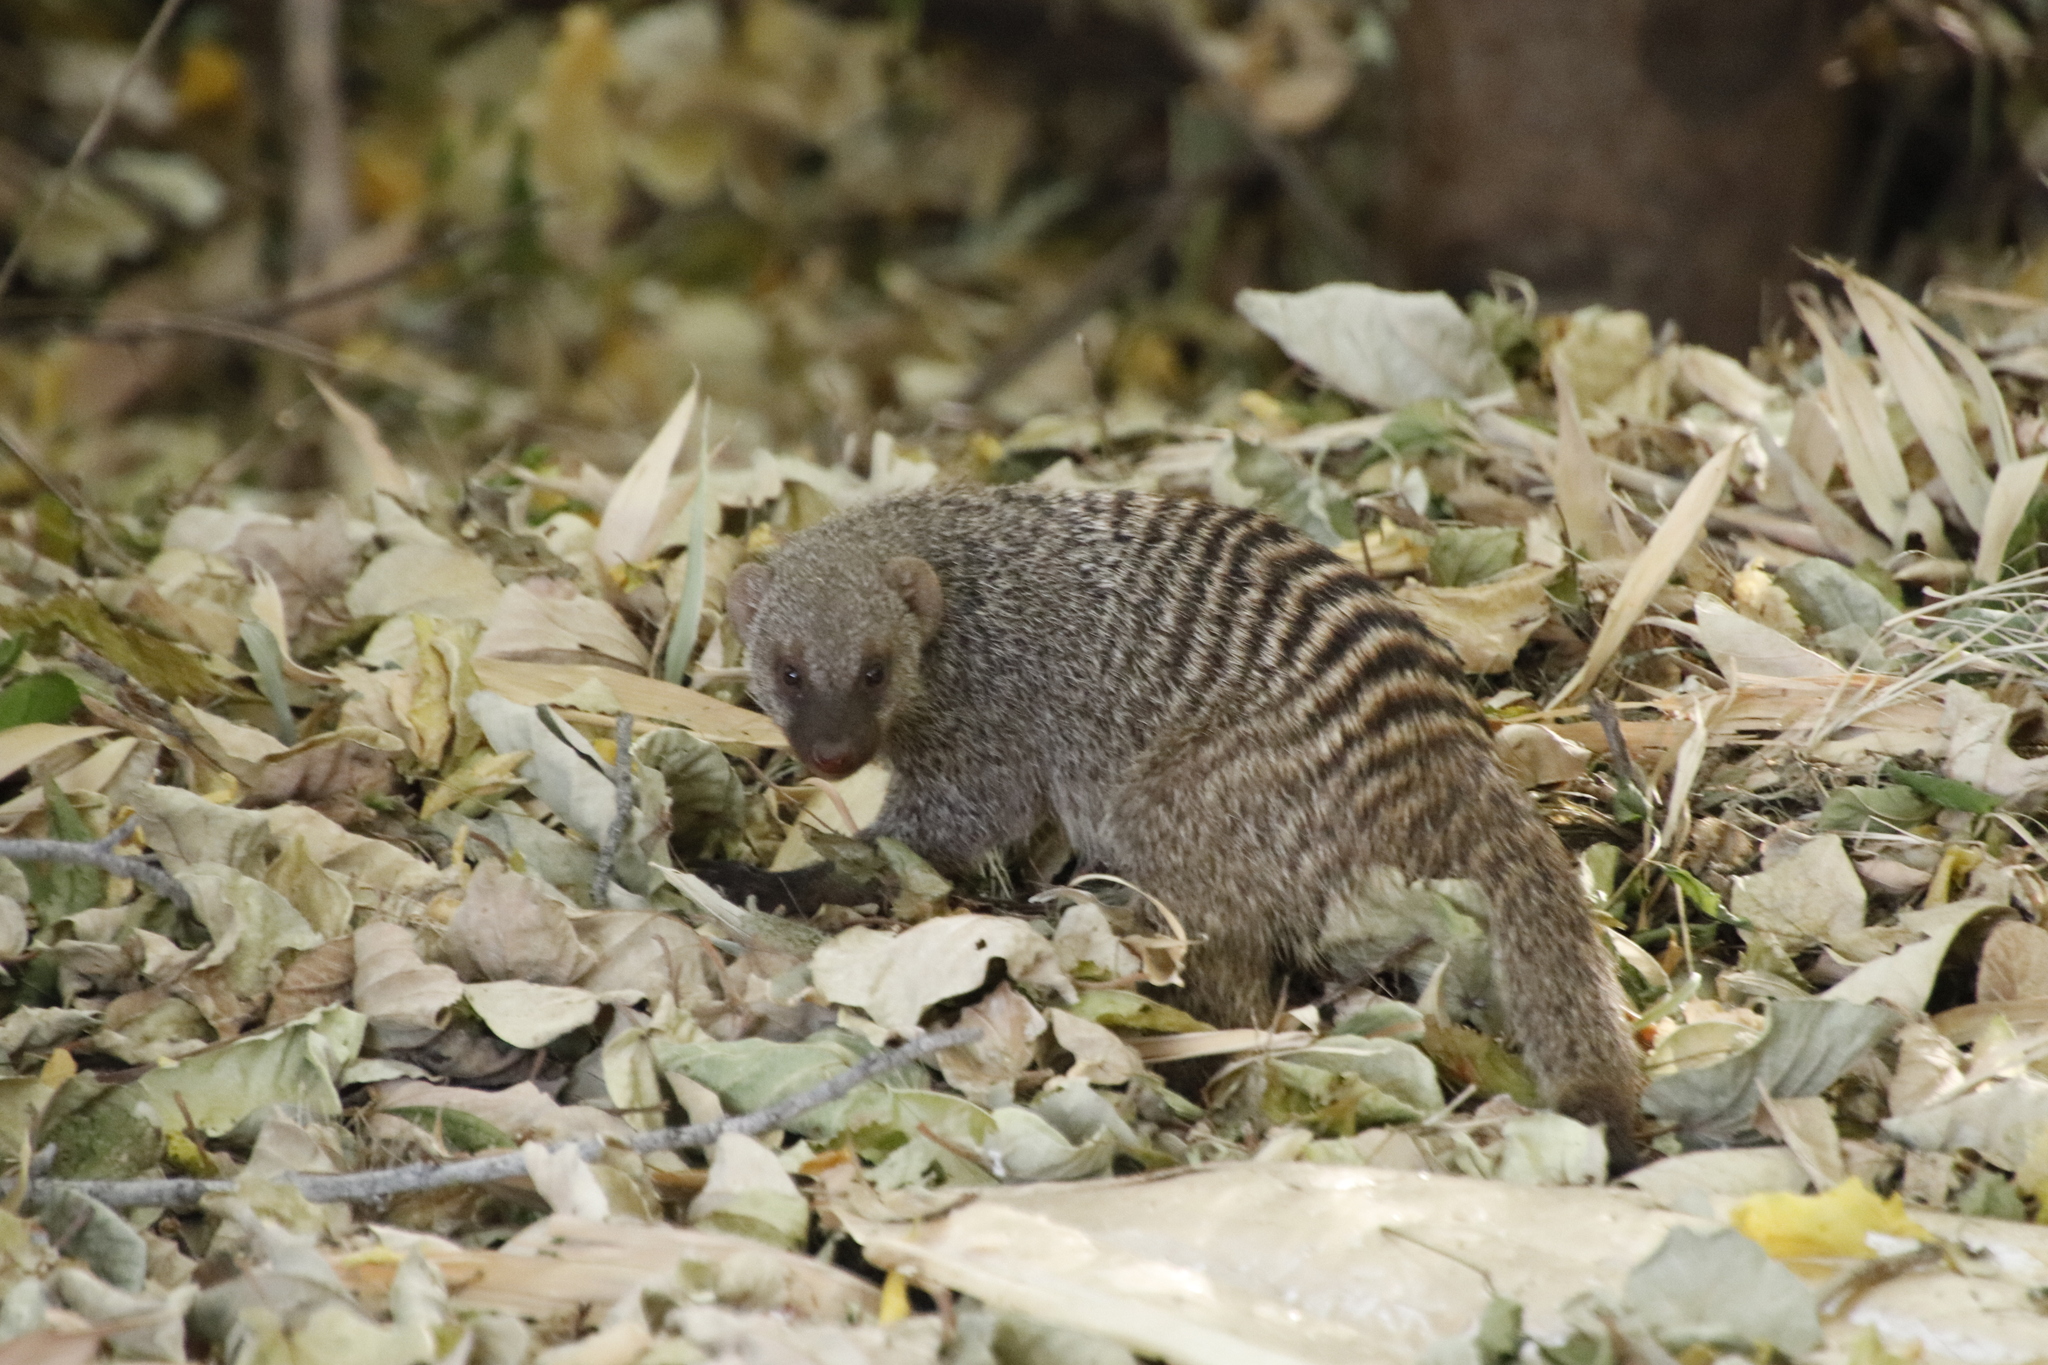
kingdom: Animalia
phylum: Chordata
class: Mammalia
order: Carnivora
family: Herpestidae
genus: Mungos
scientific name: Mungos mungo
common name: Banded mongoose
